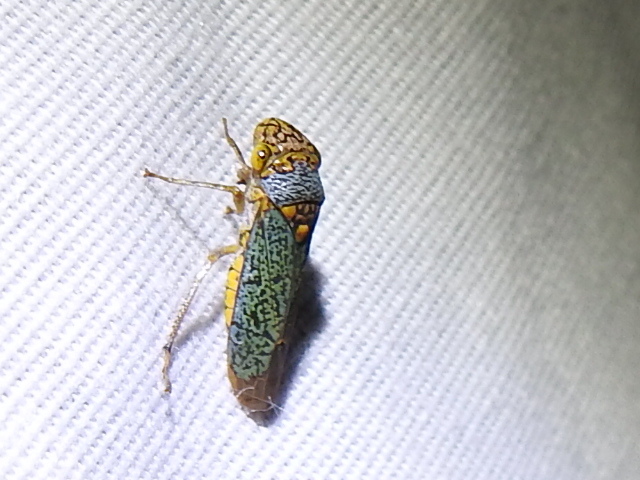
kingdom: Animalia
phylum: Arthropoda
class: Insecta
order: Hemiptera
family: Cicadellidae
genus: Oncometopia
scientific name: Oncometopia orbona
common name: Broad-headed sharpshooter
